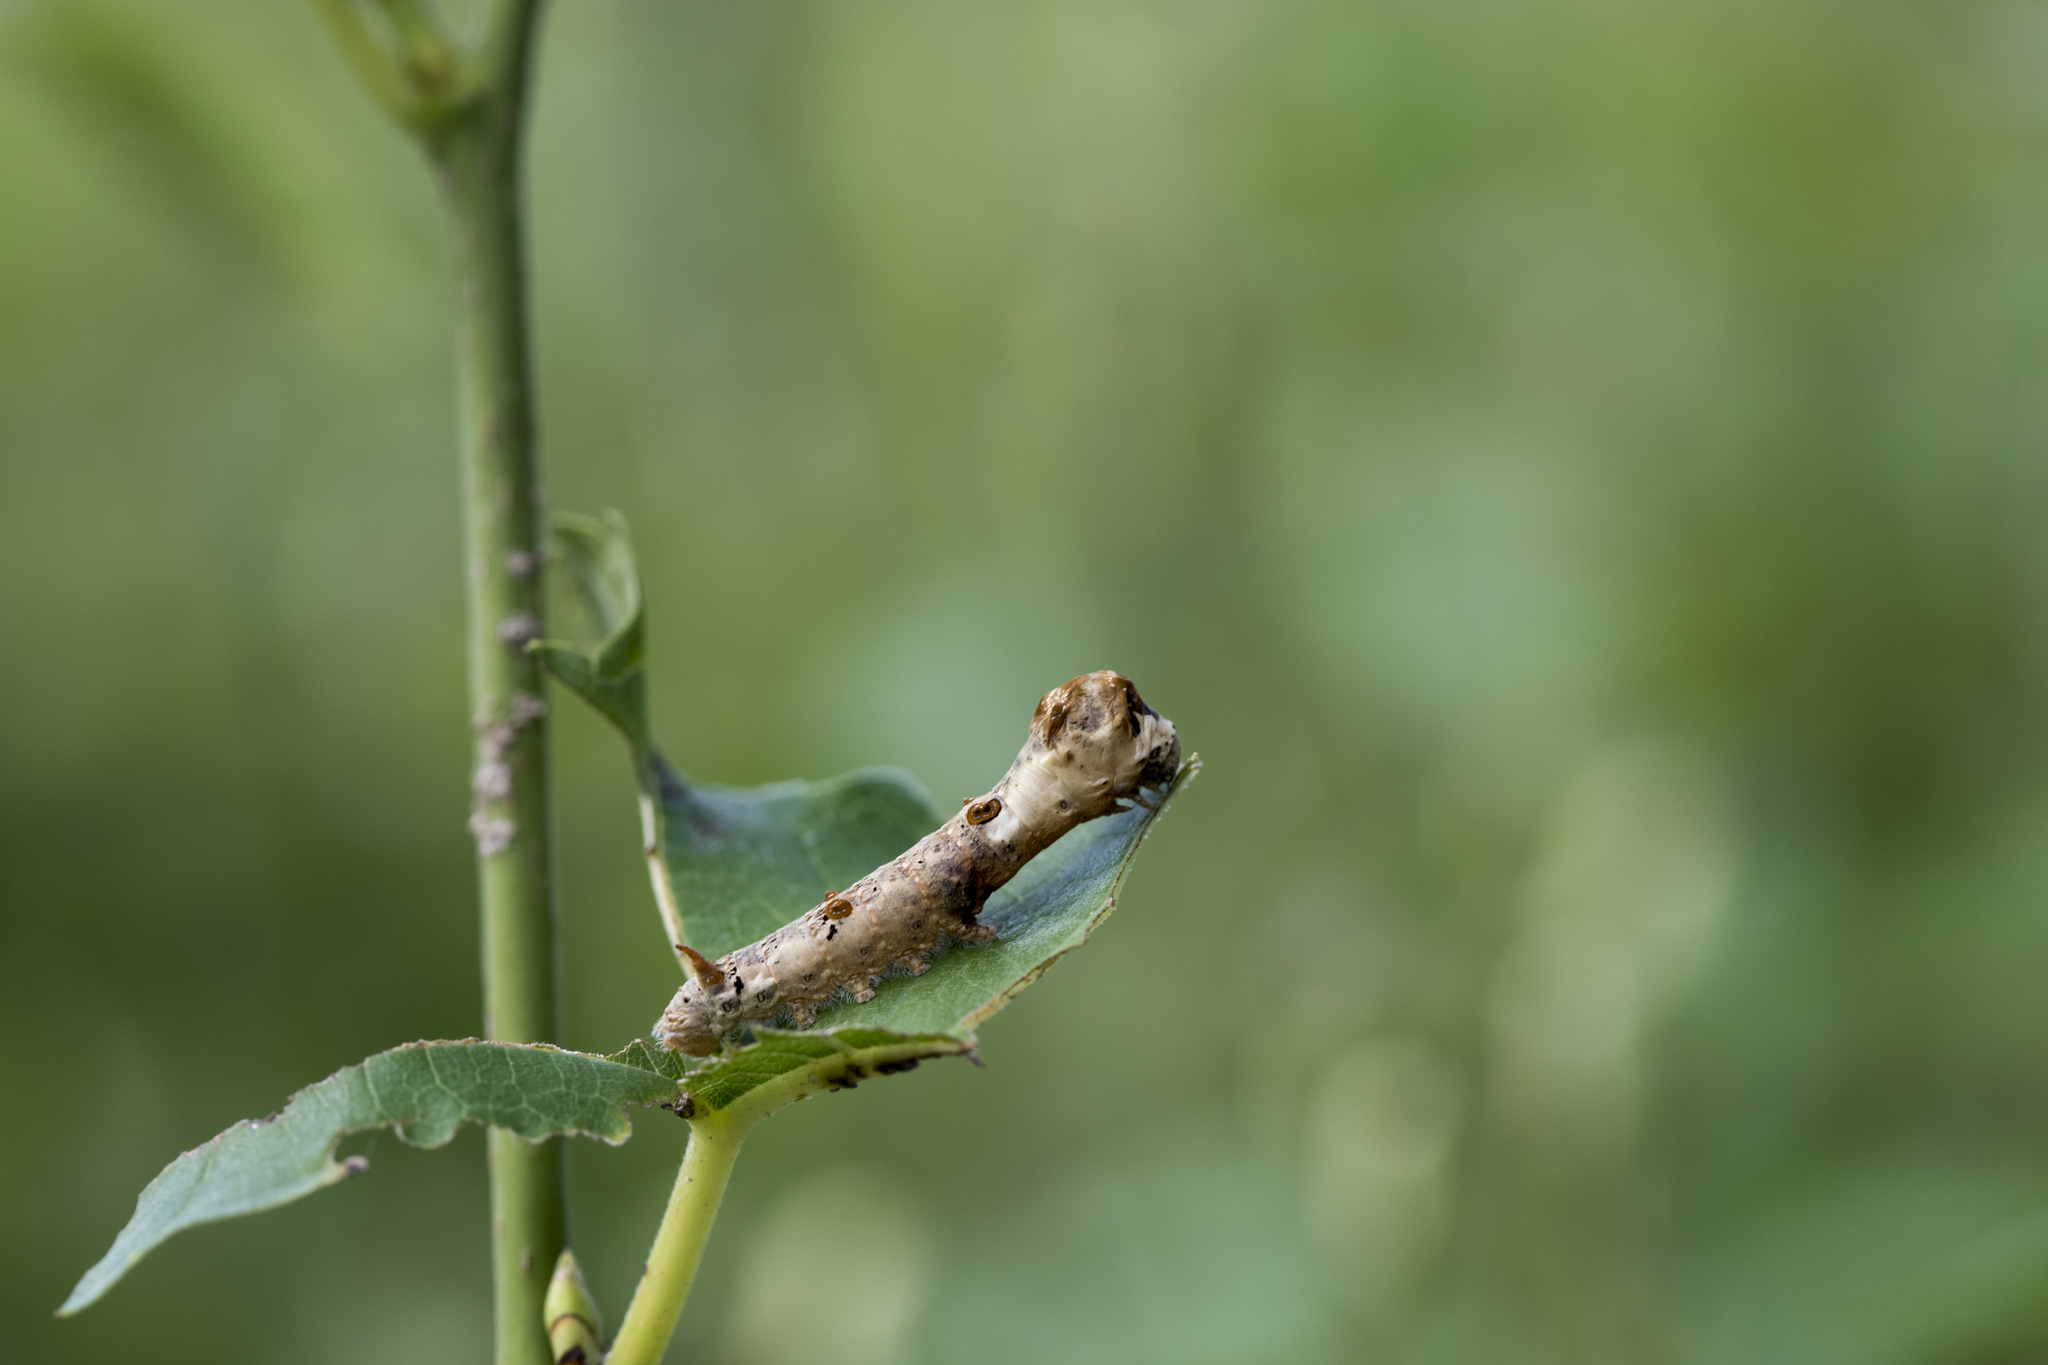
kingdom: Animalia
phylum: Arthropoda
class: Insecta
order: Lepidoptera
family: Bombycidae
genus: Bombyx
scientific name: Bombyx mandarina
